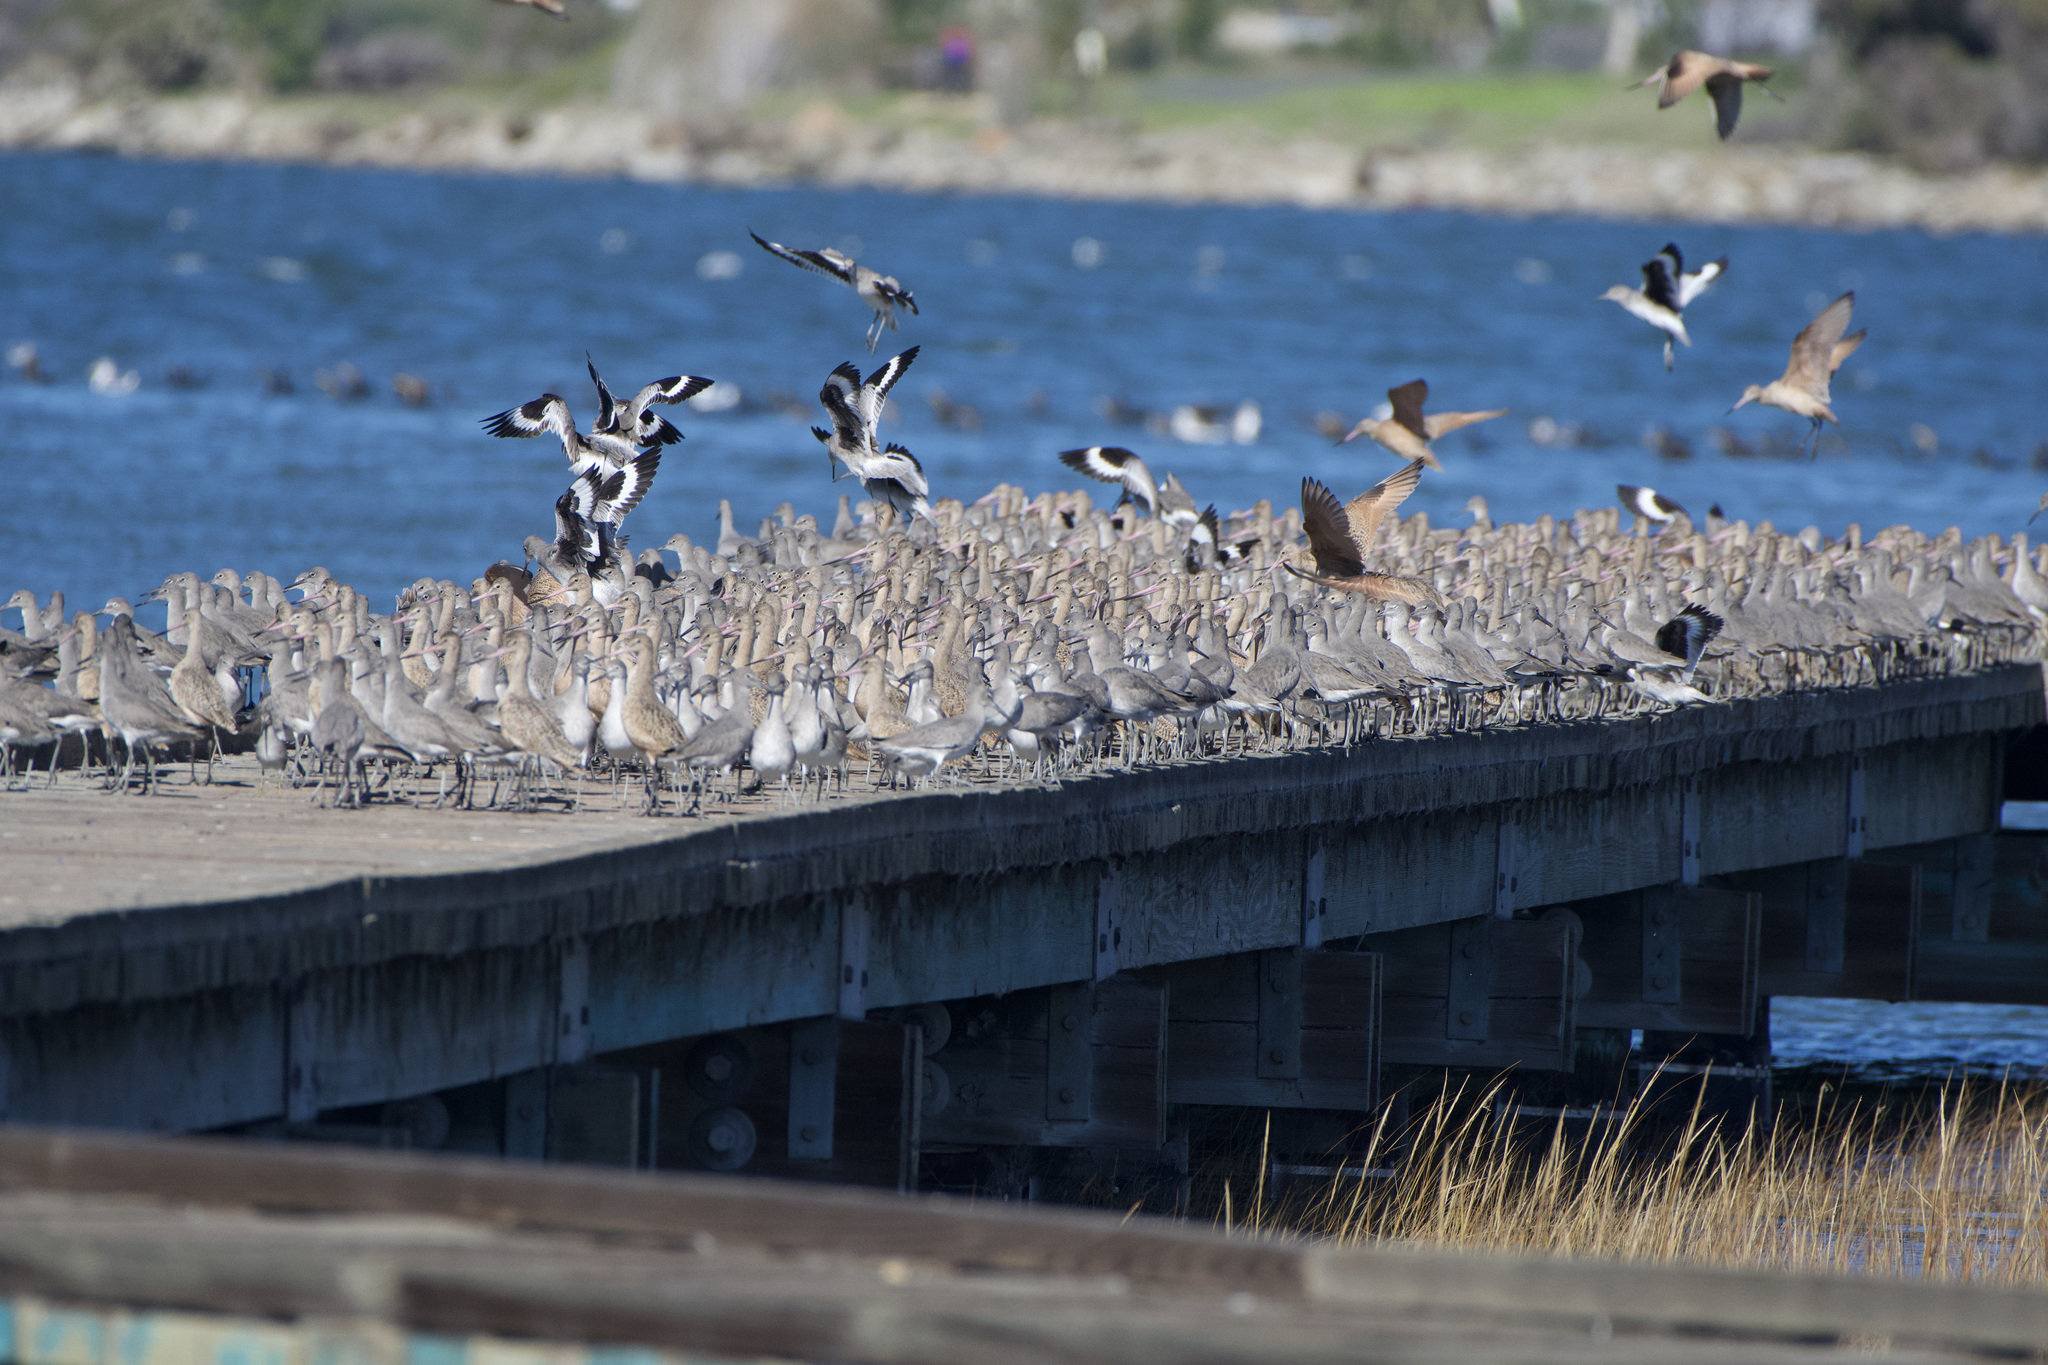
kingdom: Animalia
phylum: Chordata
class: Aves
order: Charadriiformes
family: Scolopacidae
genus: Limosa
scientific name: Limosa fedoa
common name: Marbled godwit
